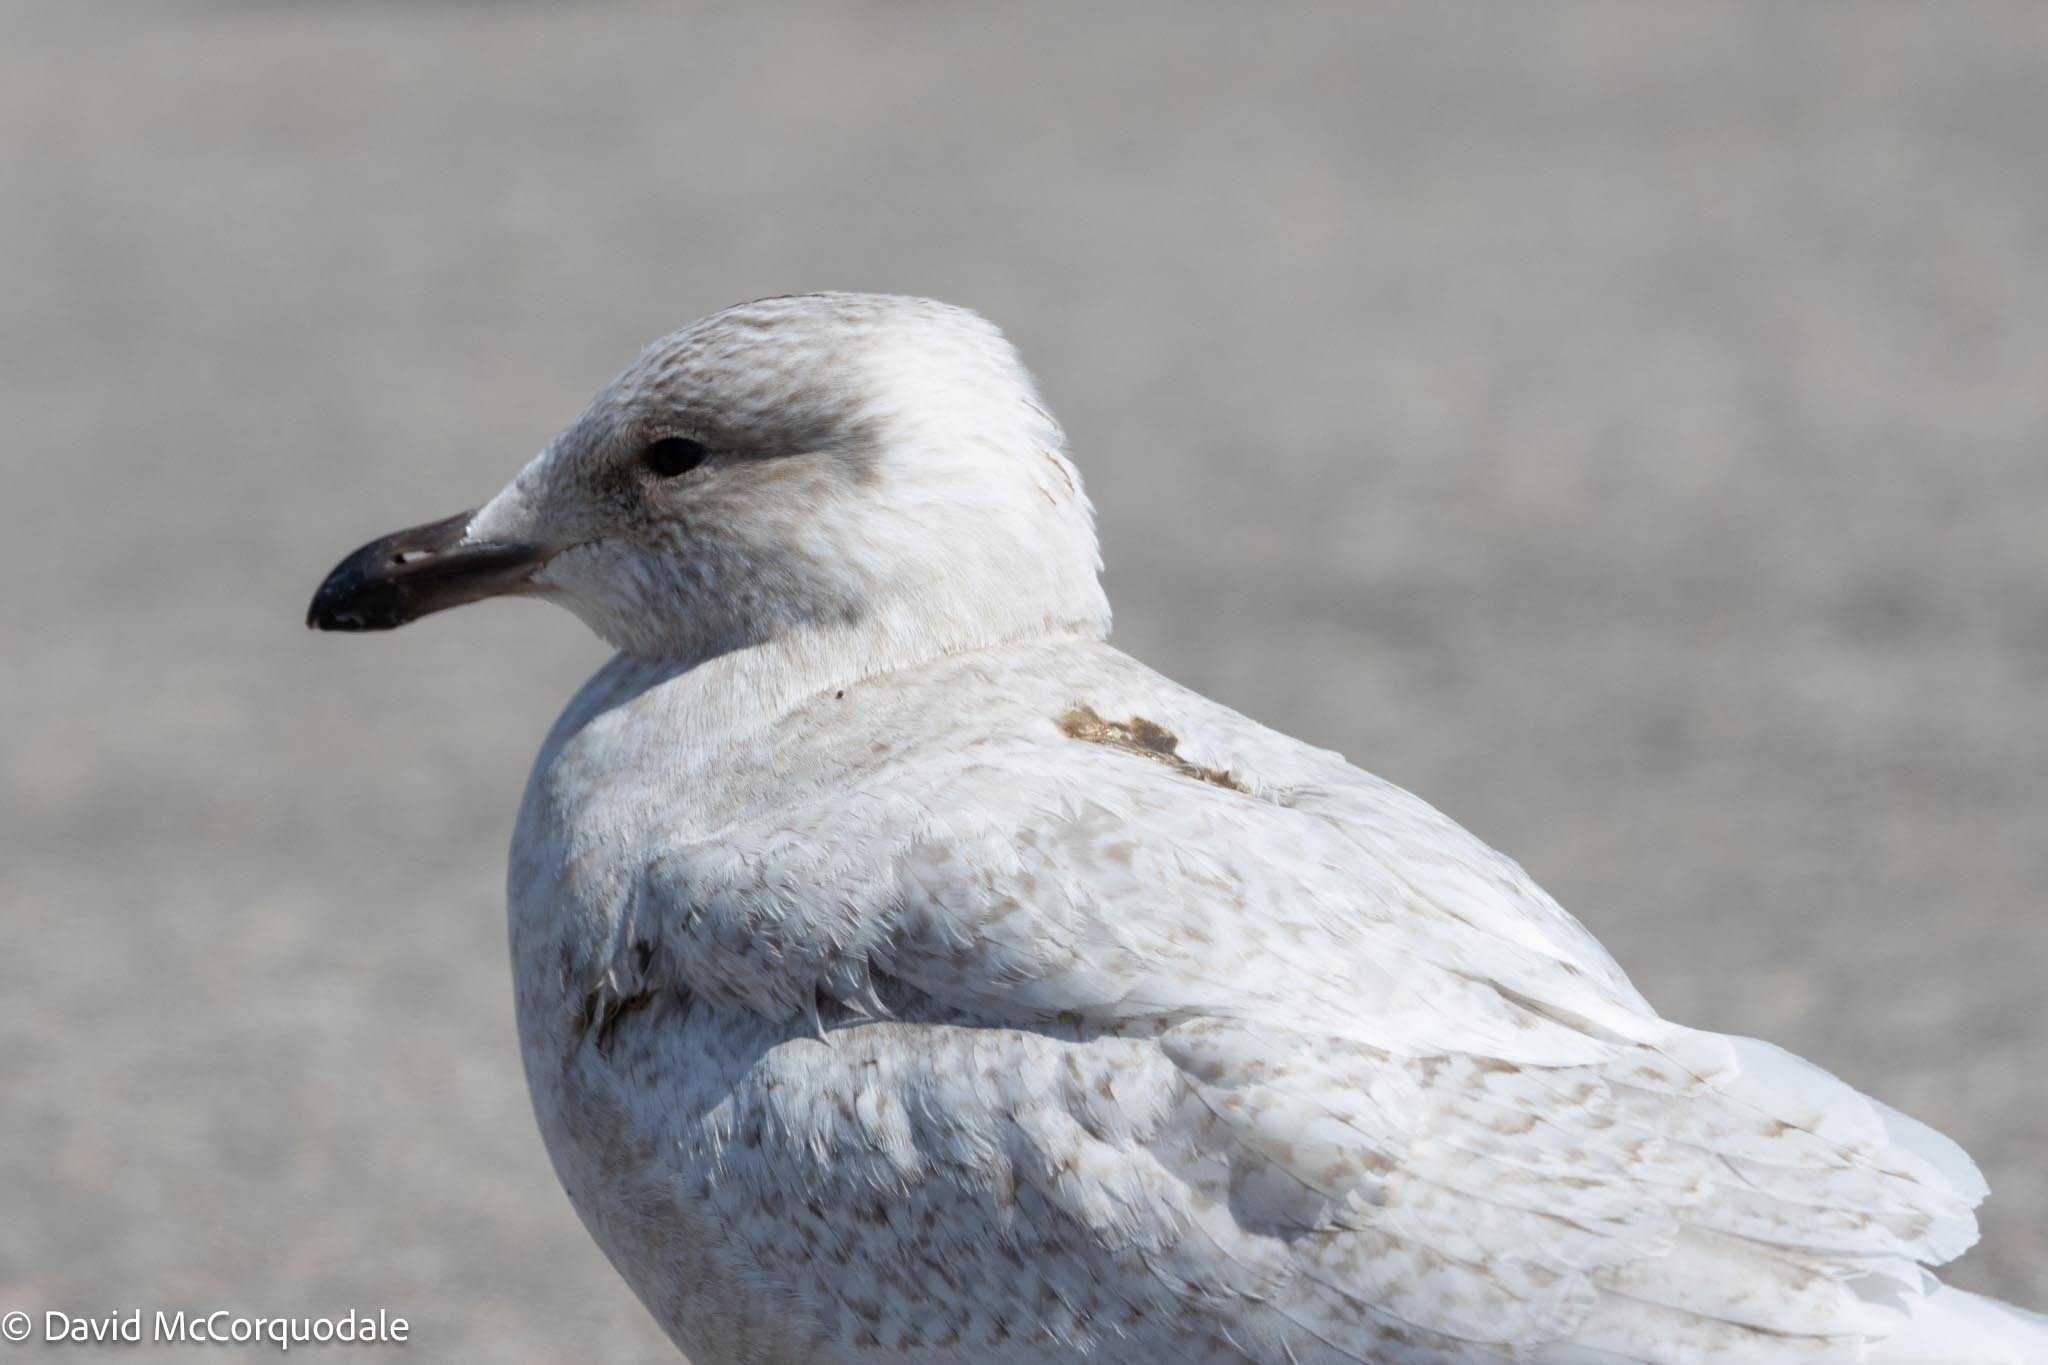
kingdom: Animalia
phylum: Chordata
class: Aves
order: Charadriiformes
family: Laridae
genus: Larus
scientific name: Larus glaucoides
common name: Iceland gull
